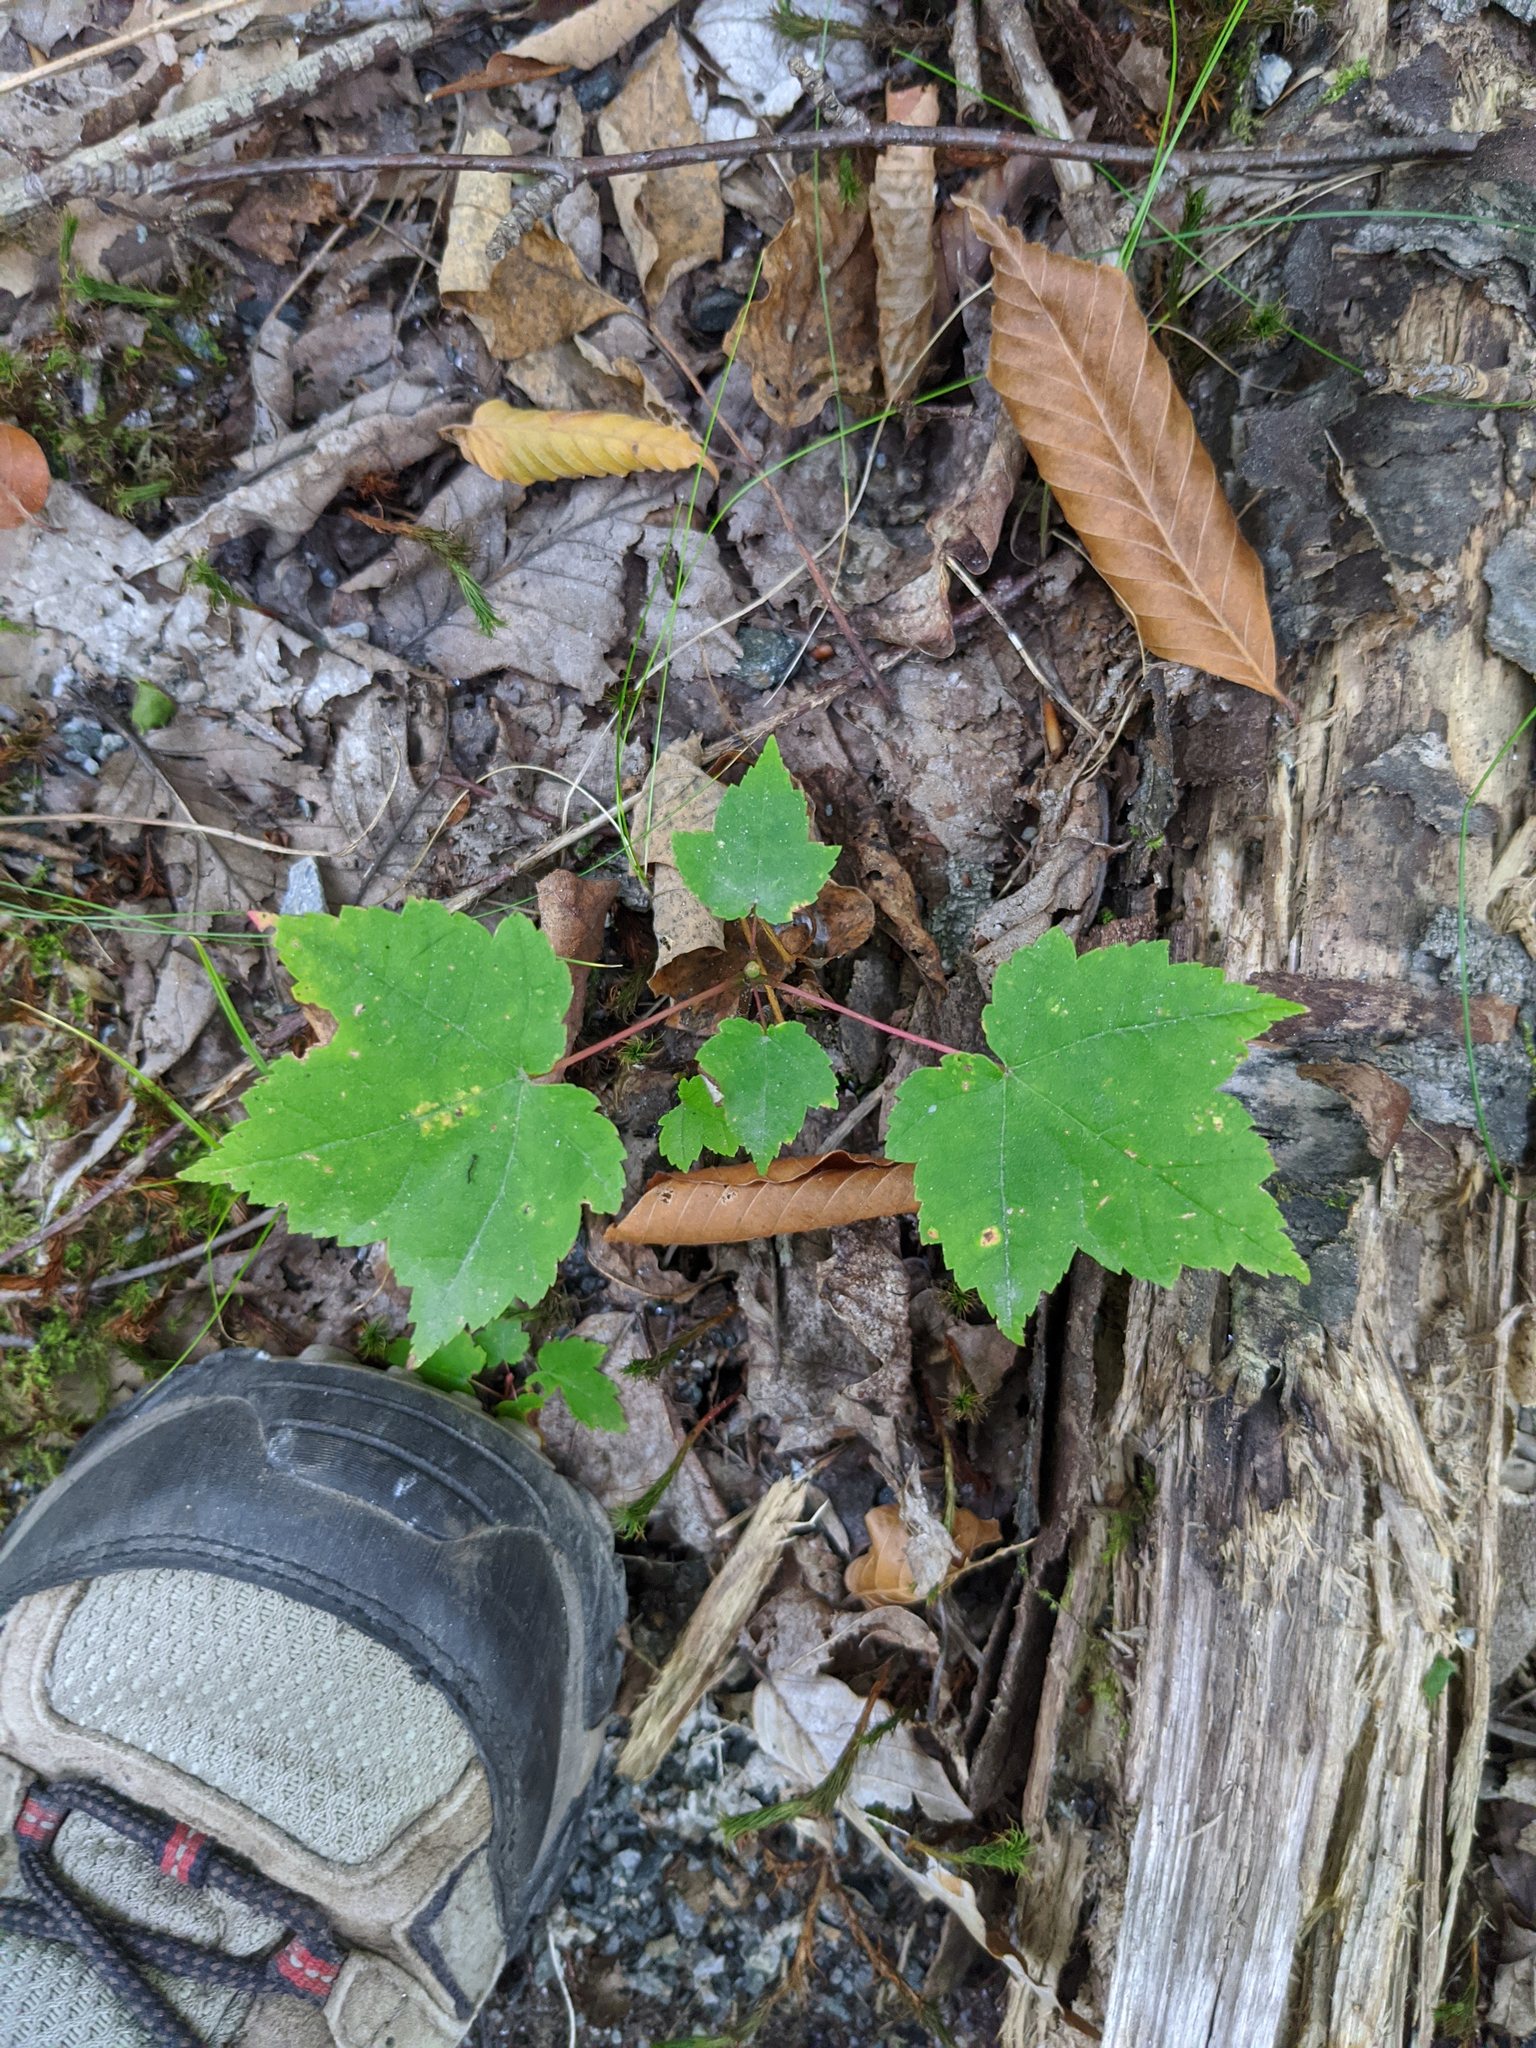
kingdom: Plantae
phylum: Tracheophyta
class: Magnoliopsida
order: Sapindales
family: Sapindaceae
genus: Acer
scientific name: Acer rubrum
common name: Red maple
